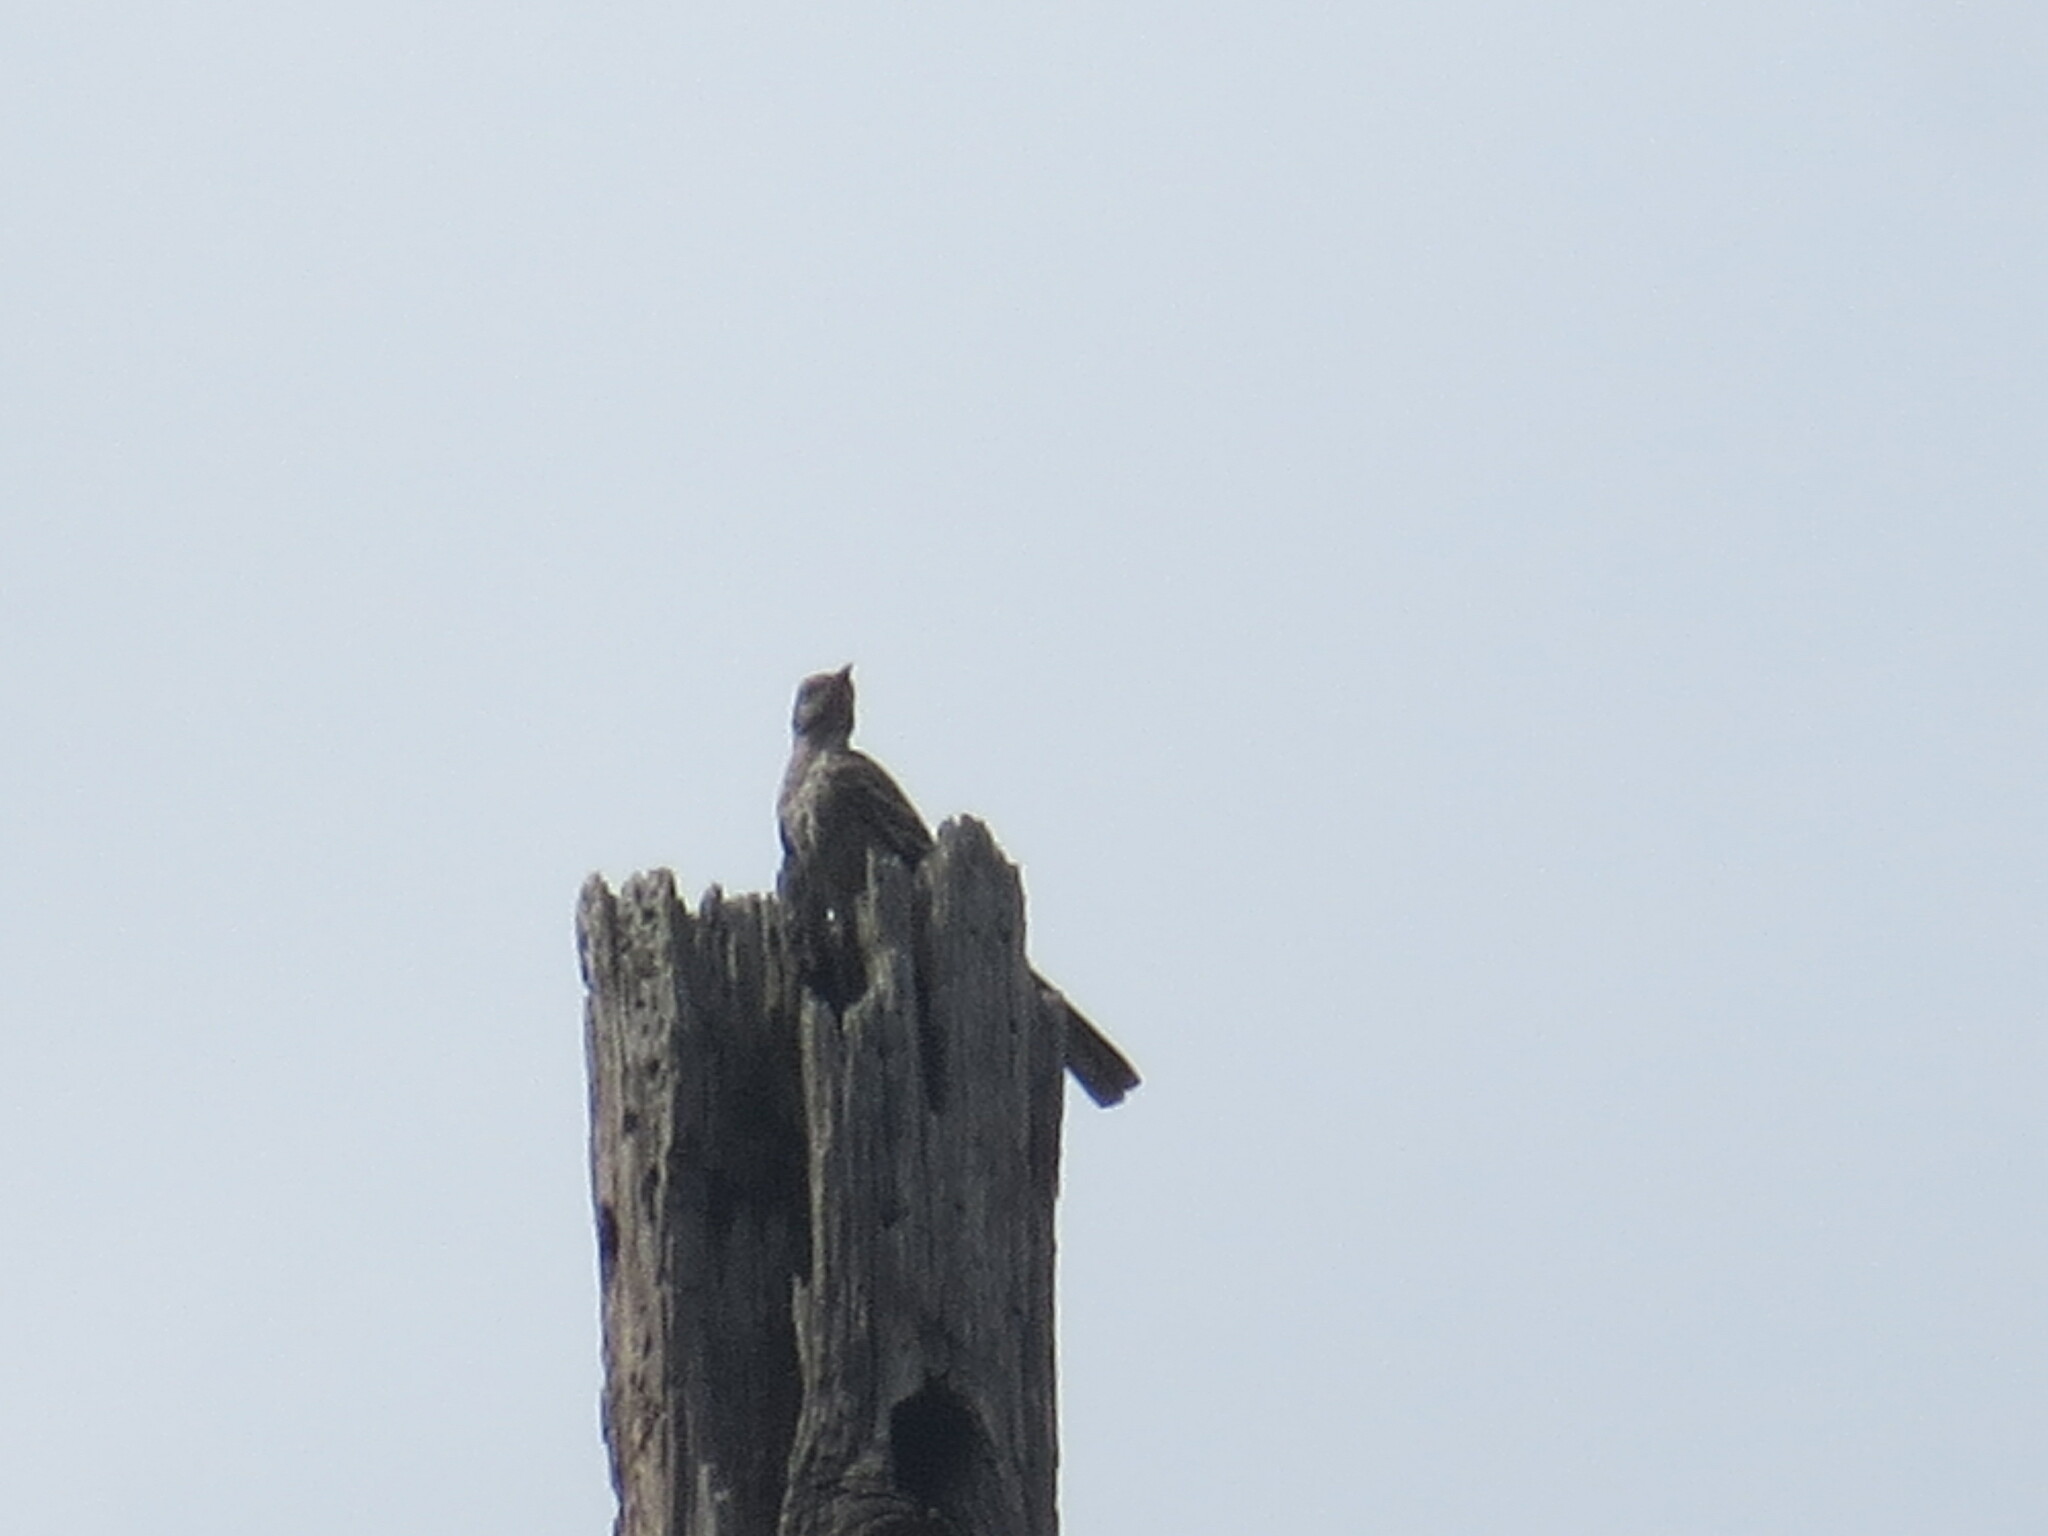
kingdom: Animalia
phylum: Chordata
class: Aves
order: Passeriformes
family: Mimidae
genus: Mimus
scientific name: Mimus polyglottos
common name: Northern mockingbird
